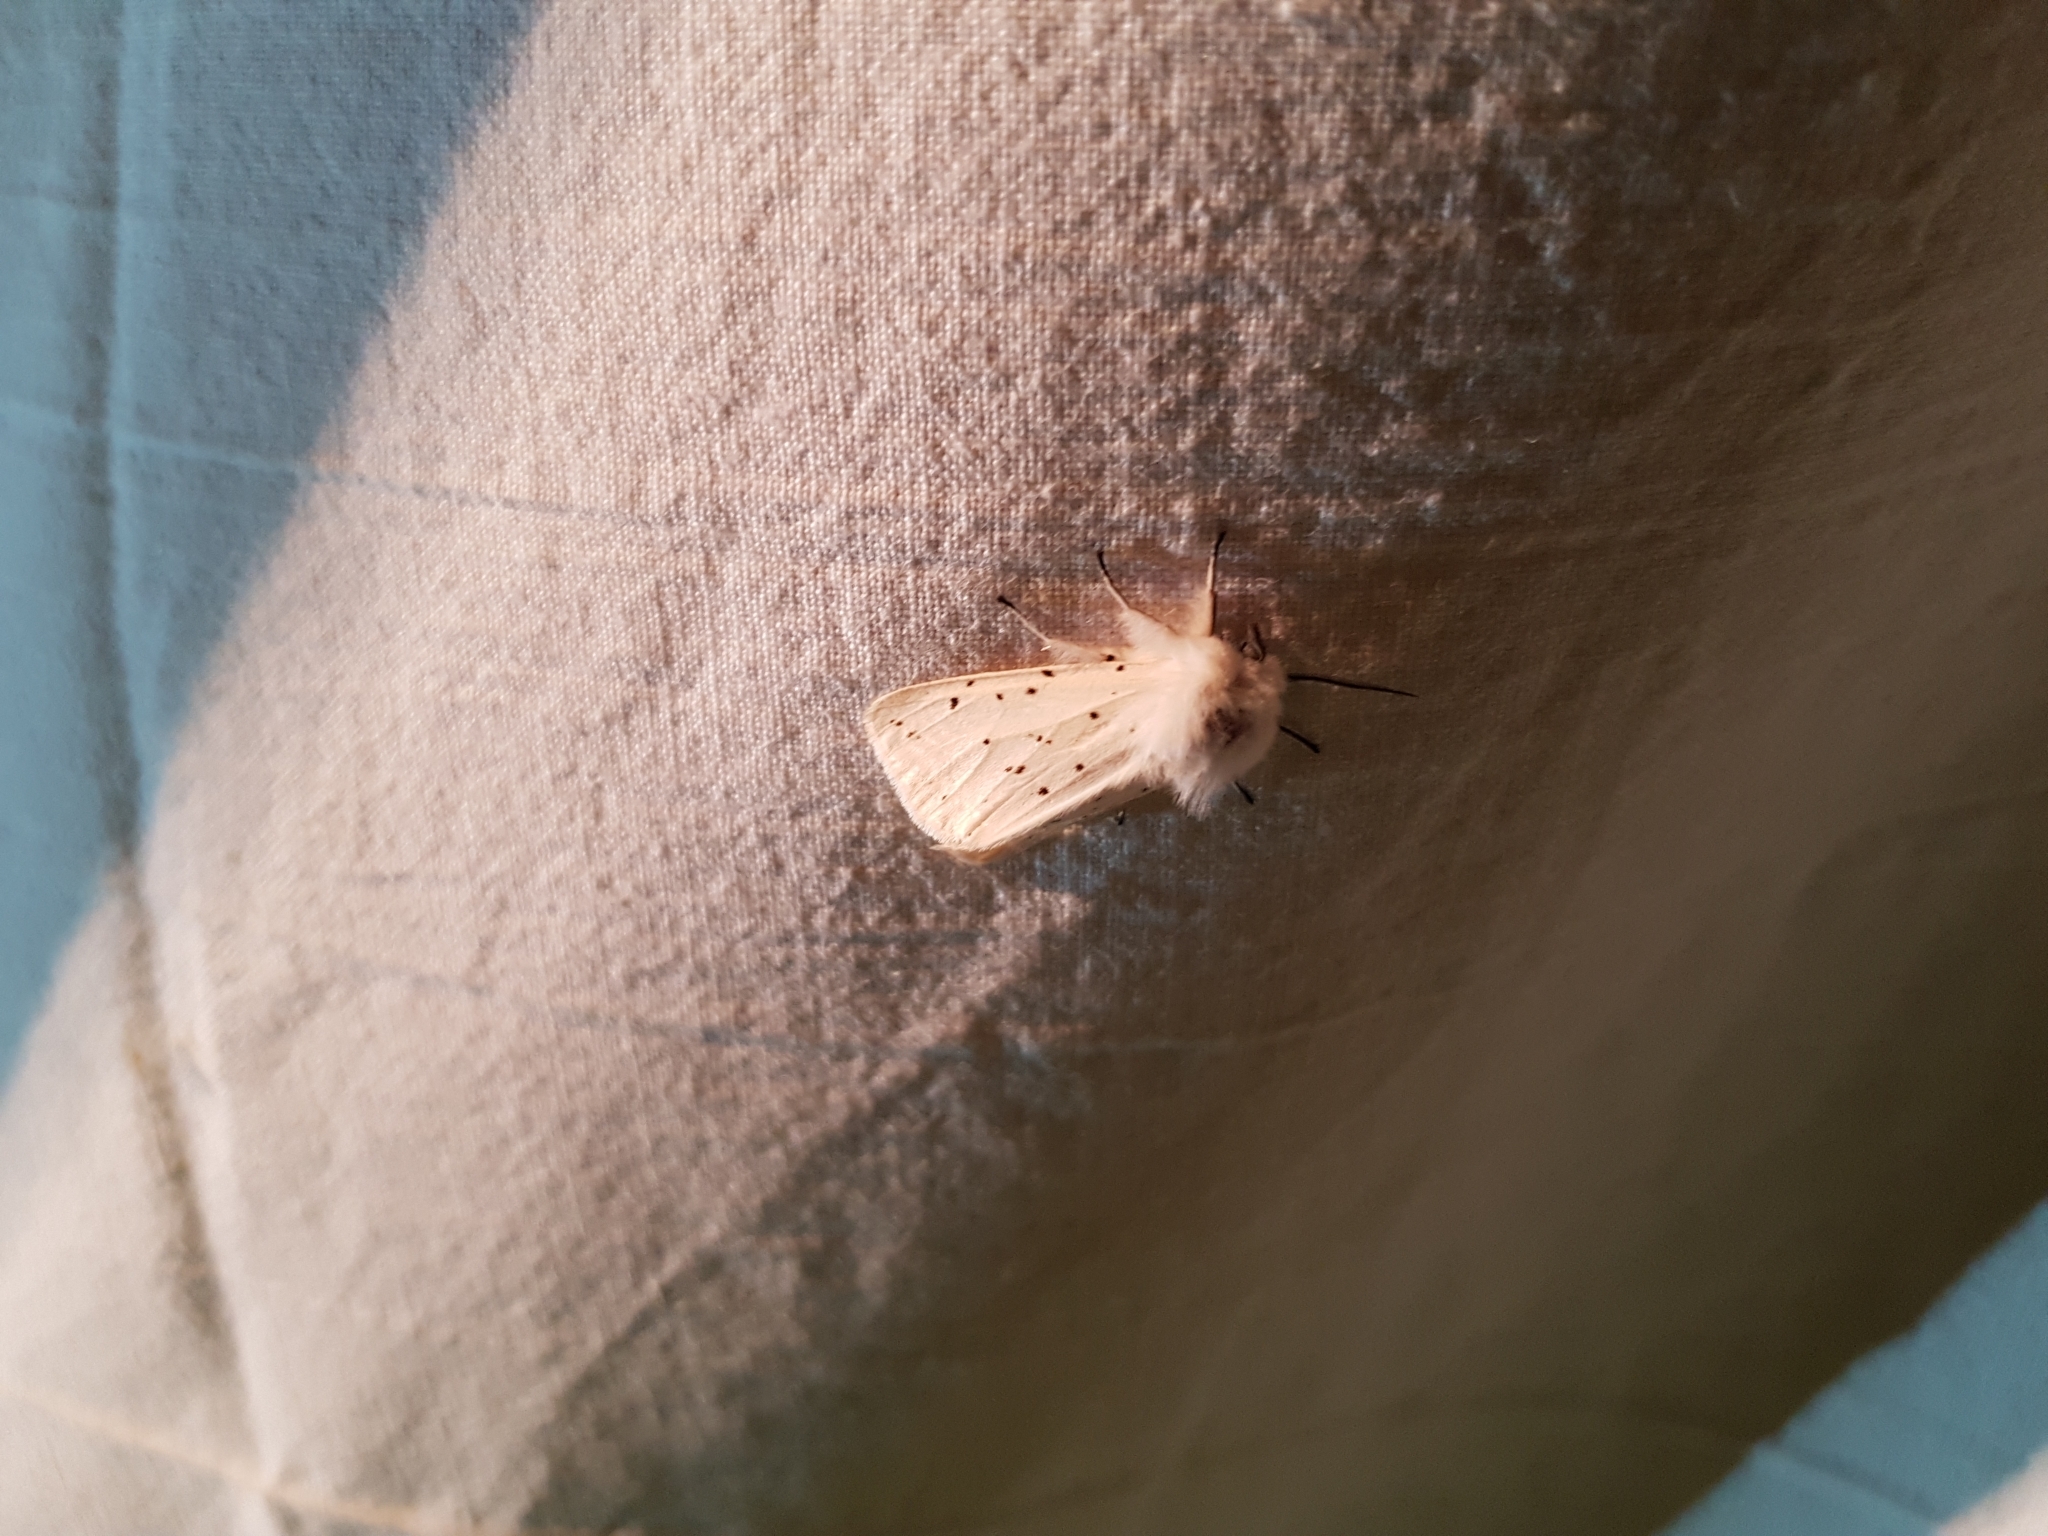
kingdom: Animalia
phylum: Arthropoda
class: Insecta
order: Lepidoptera
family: Erebidae
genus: Spilosoma
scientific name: Spilosoma lubricipeda
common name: White ermine
